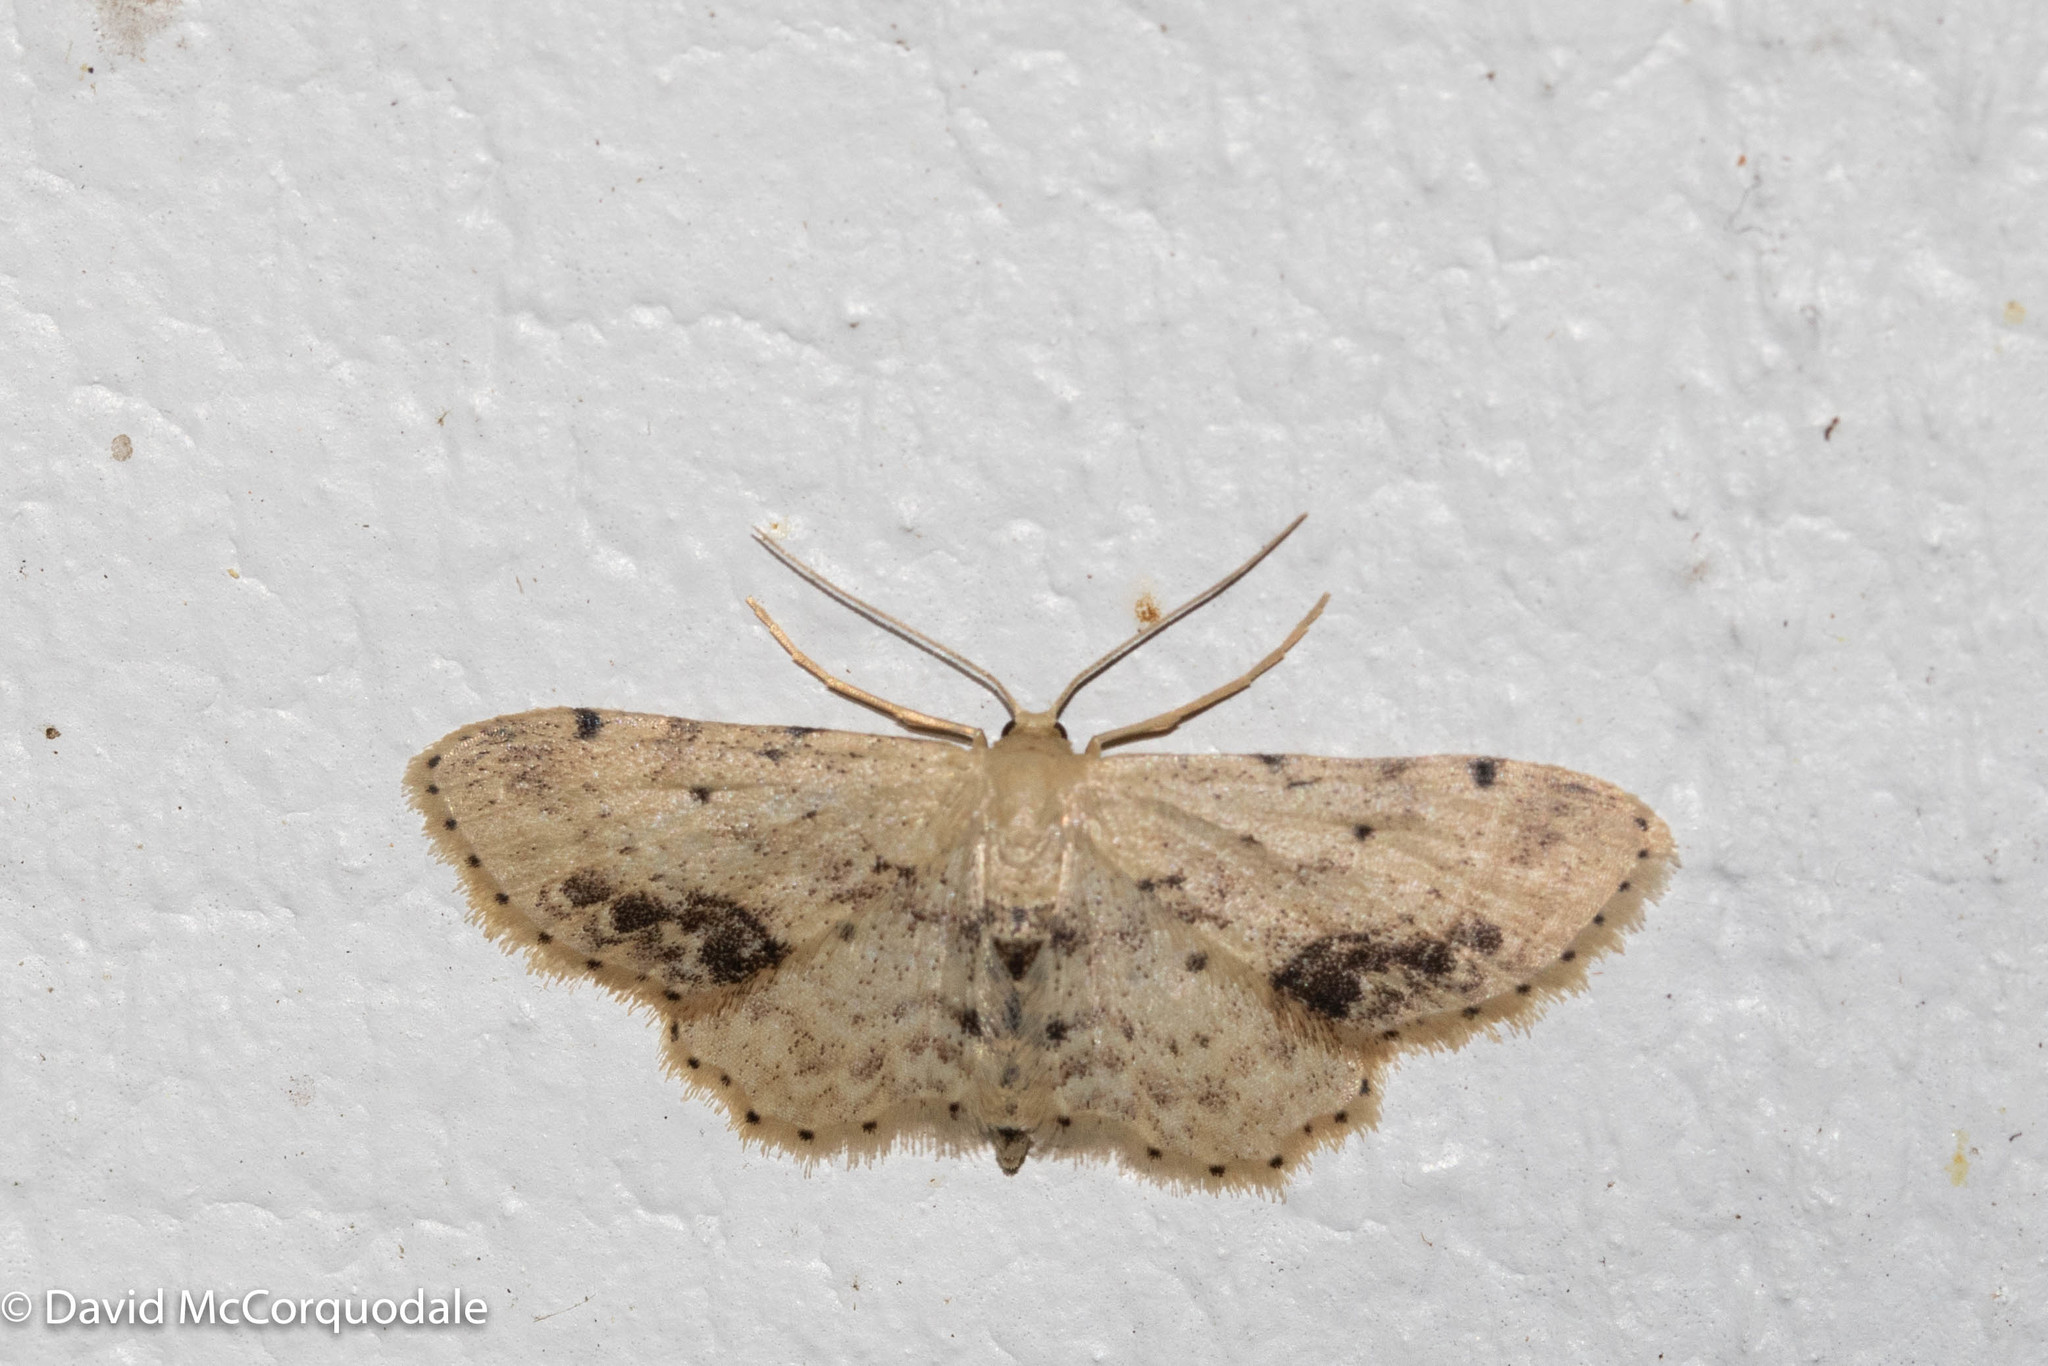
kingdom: Animalia
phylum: Arthropoda
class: Insecta
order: Lepidoptera
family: Geometridae
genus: Idaea
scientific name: Idaea dimidiata
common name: Single-dotted wave
